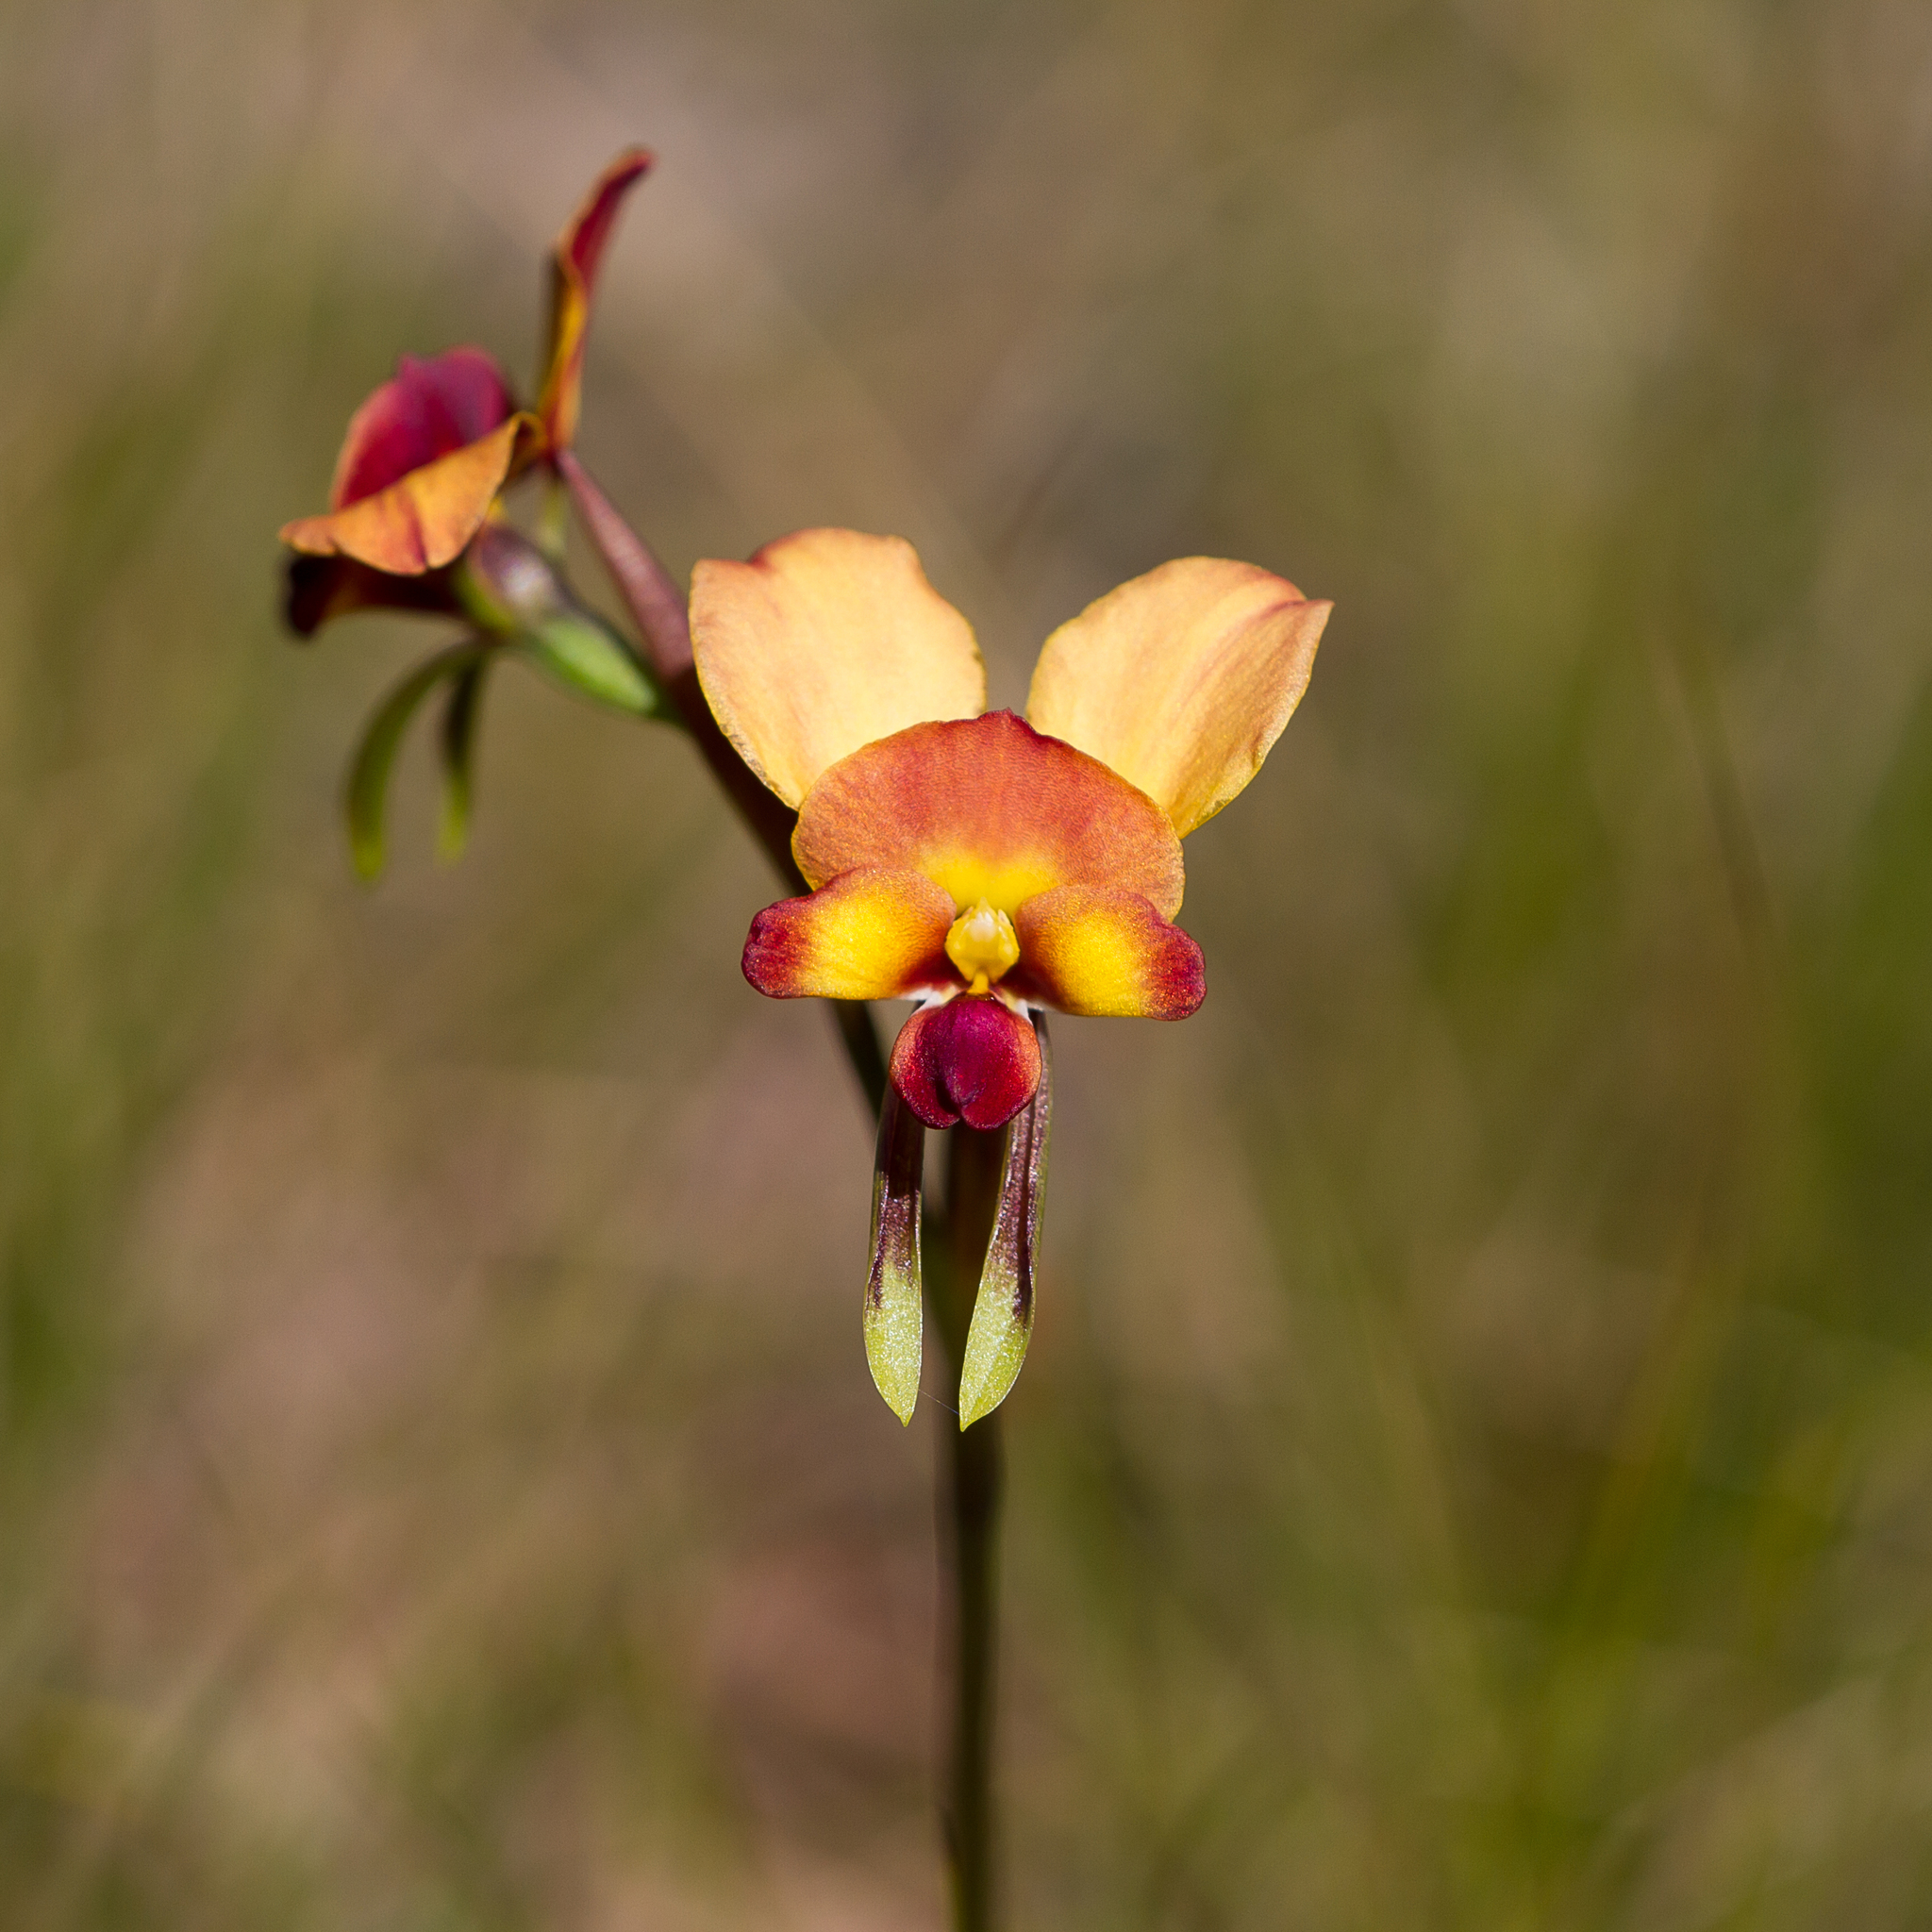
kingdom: Plantae
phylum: Tracheophyta
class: Liliopsida
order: Asparagales
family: Orchidaceae
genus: Diuris
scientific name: Diuris orientis
